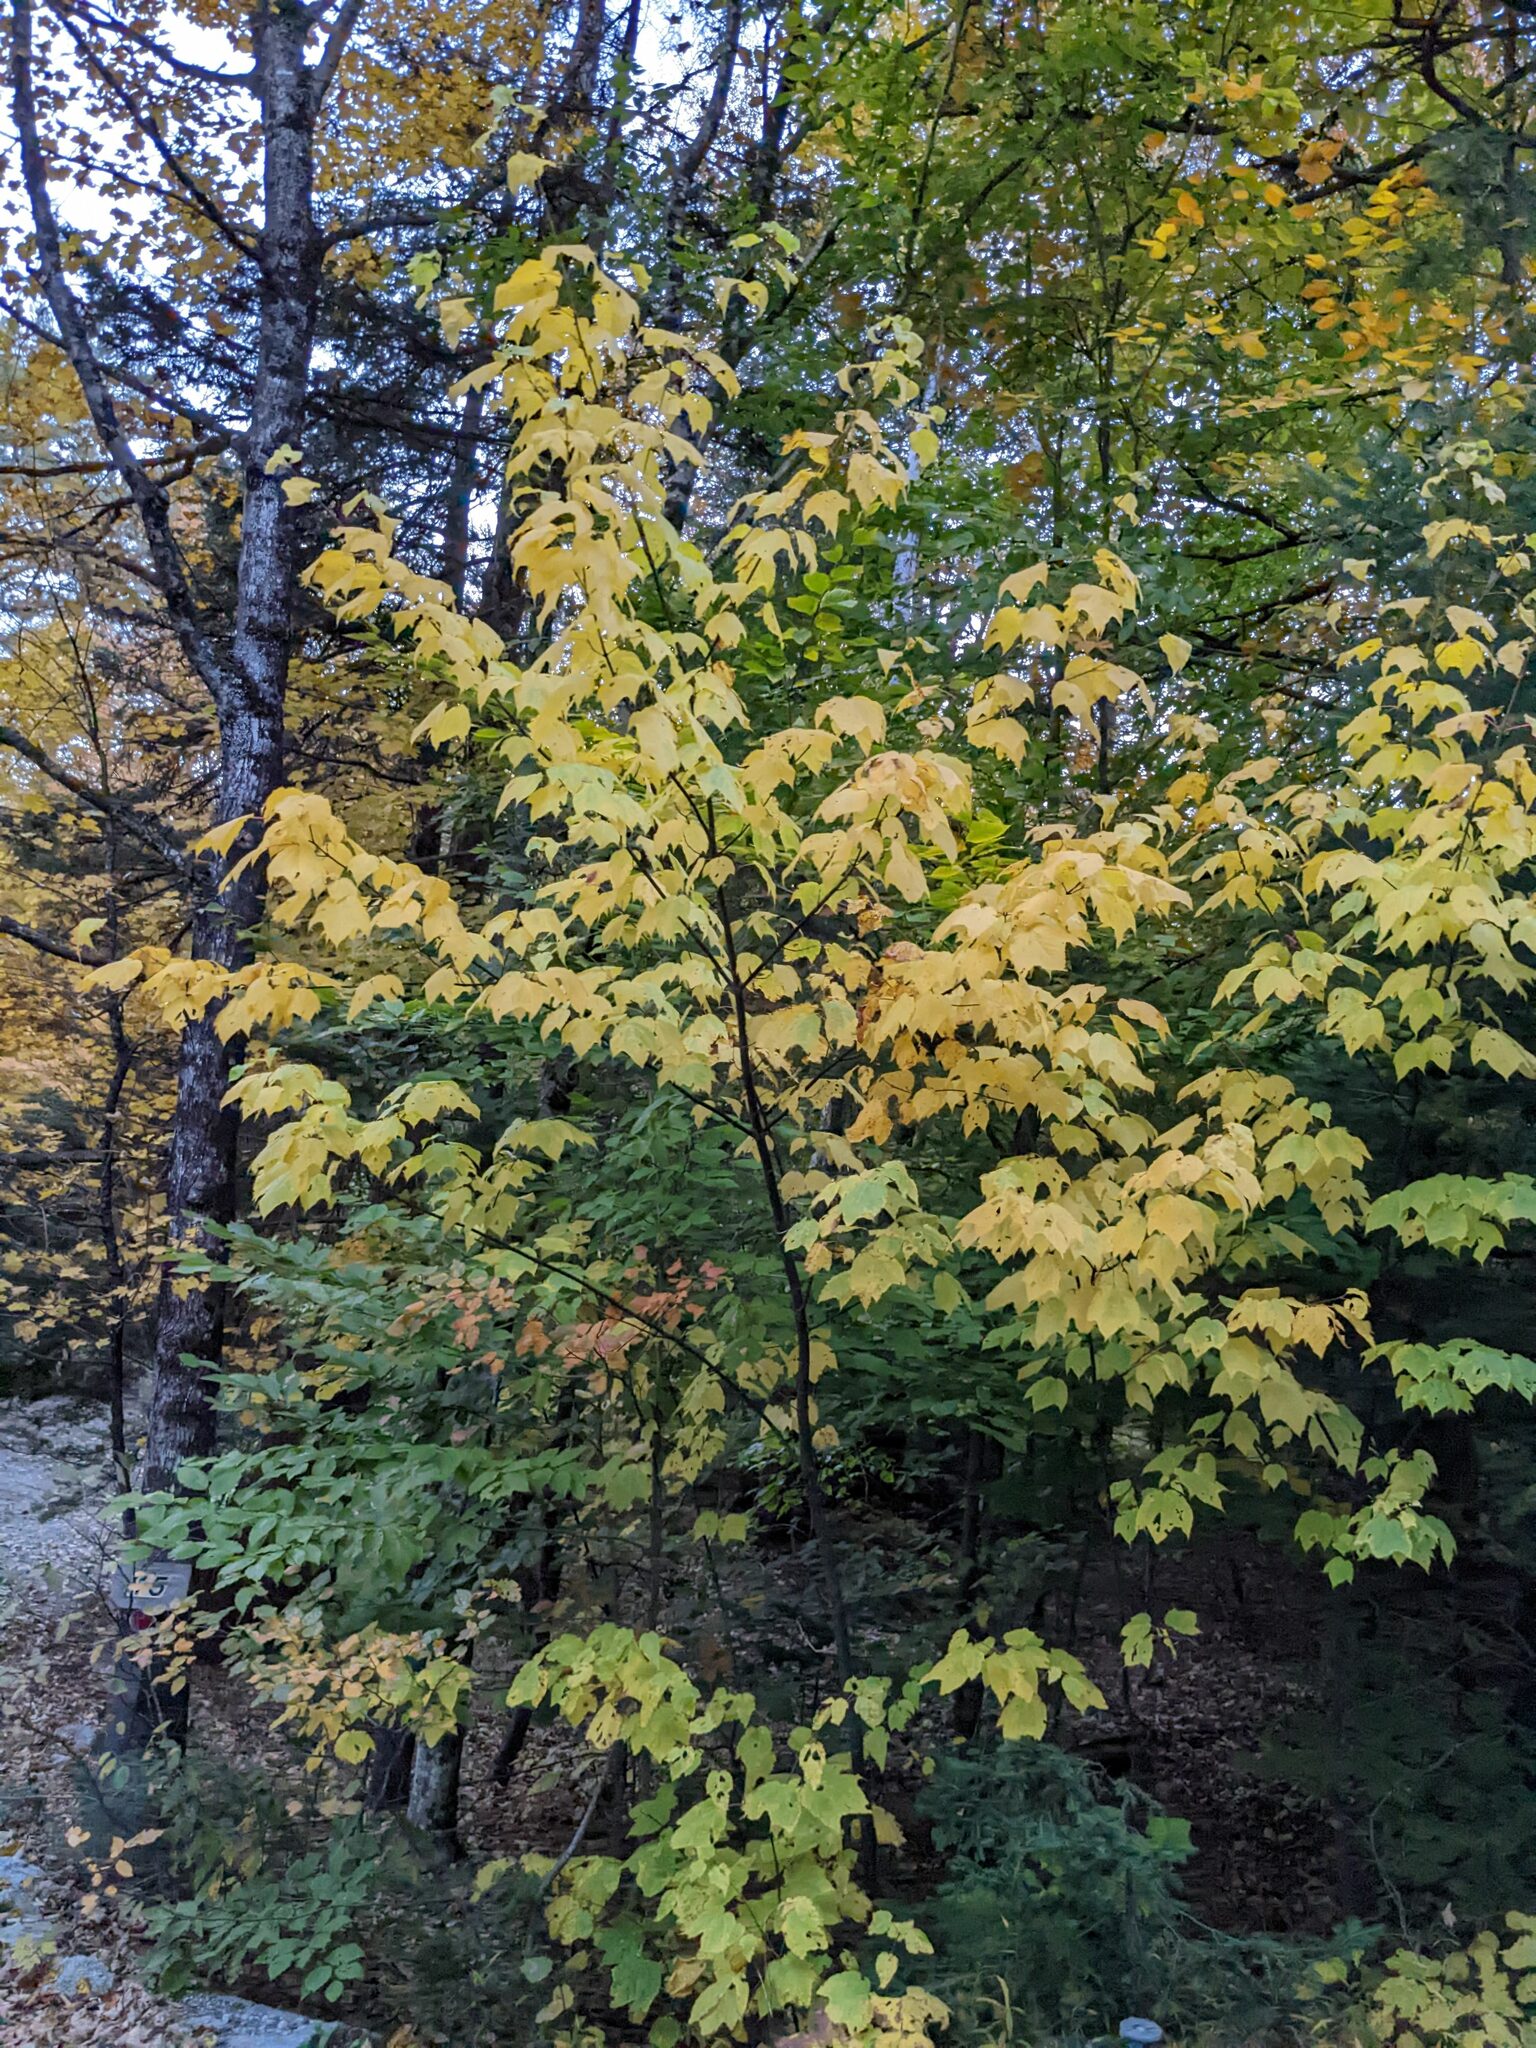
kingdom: Plantae
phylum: Tracheophyta
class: Magnoliopsida
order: Sapindales
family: Sapindaceae
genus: Acer
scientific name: Acer pensylvanicum
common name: Moosewood
